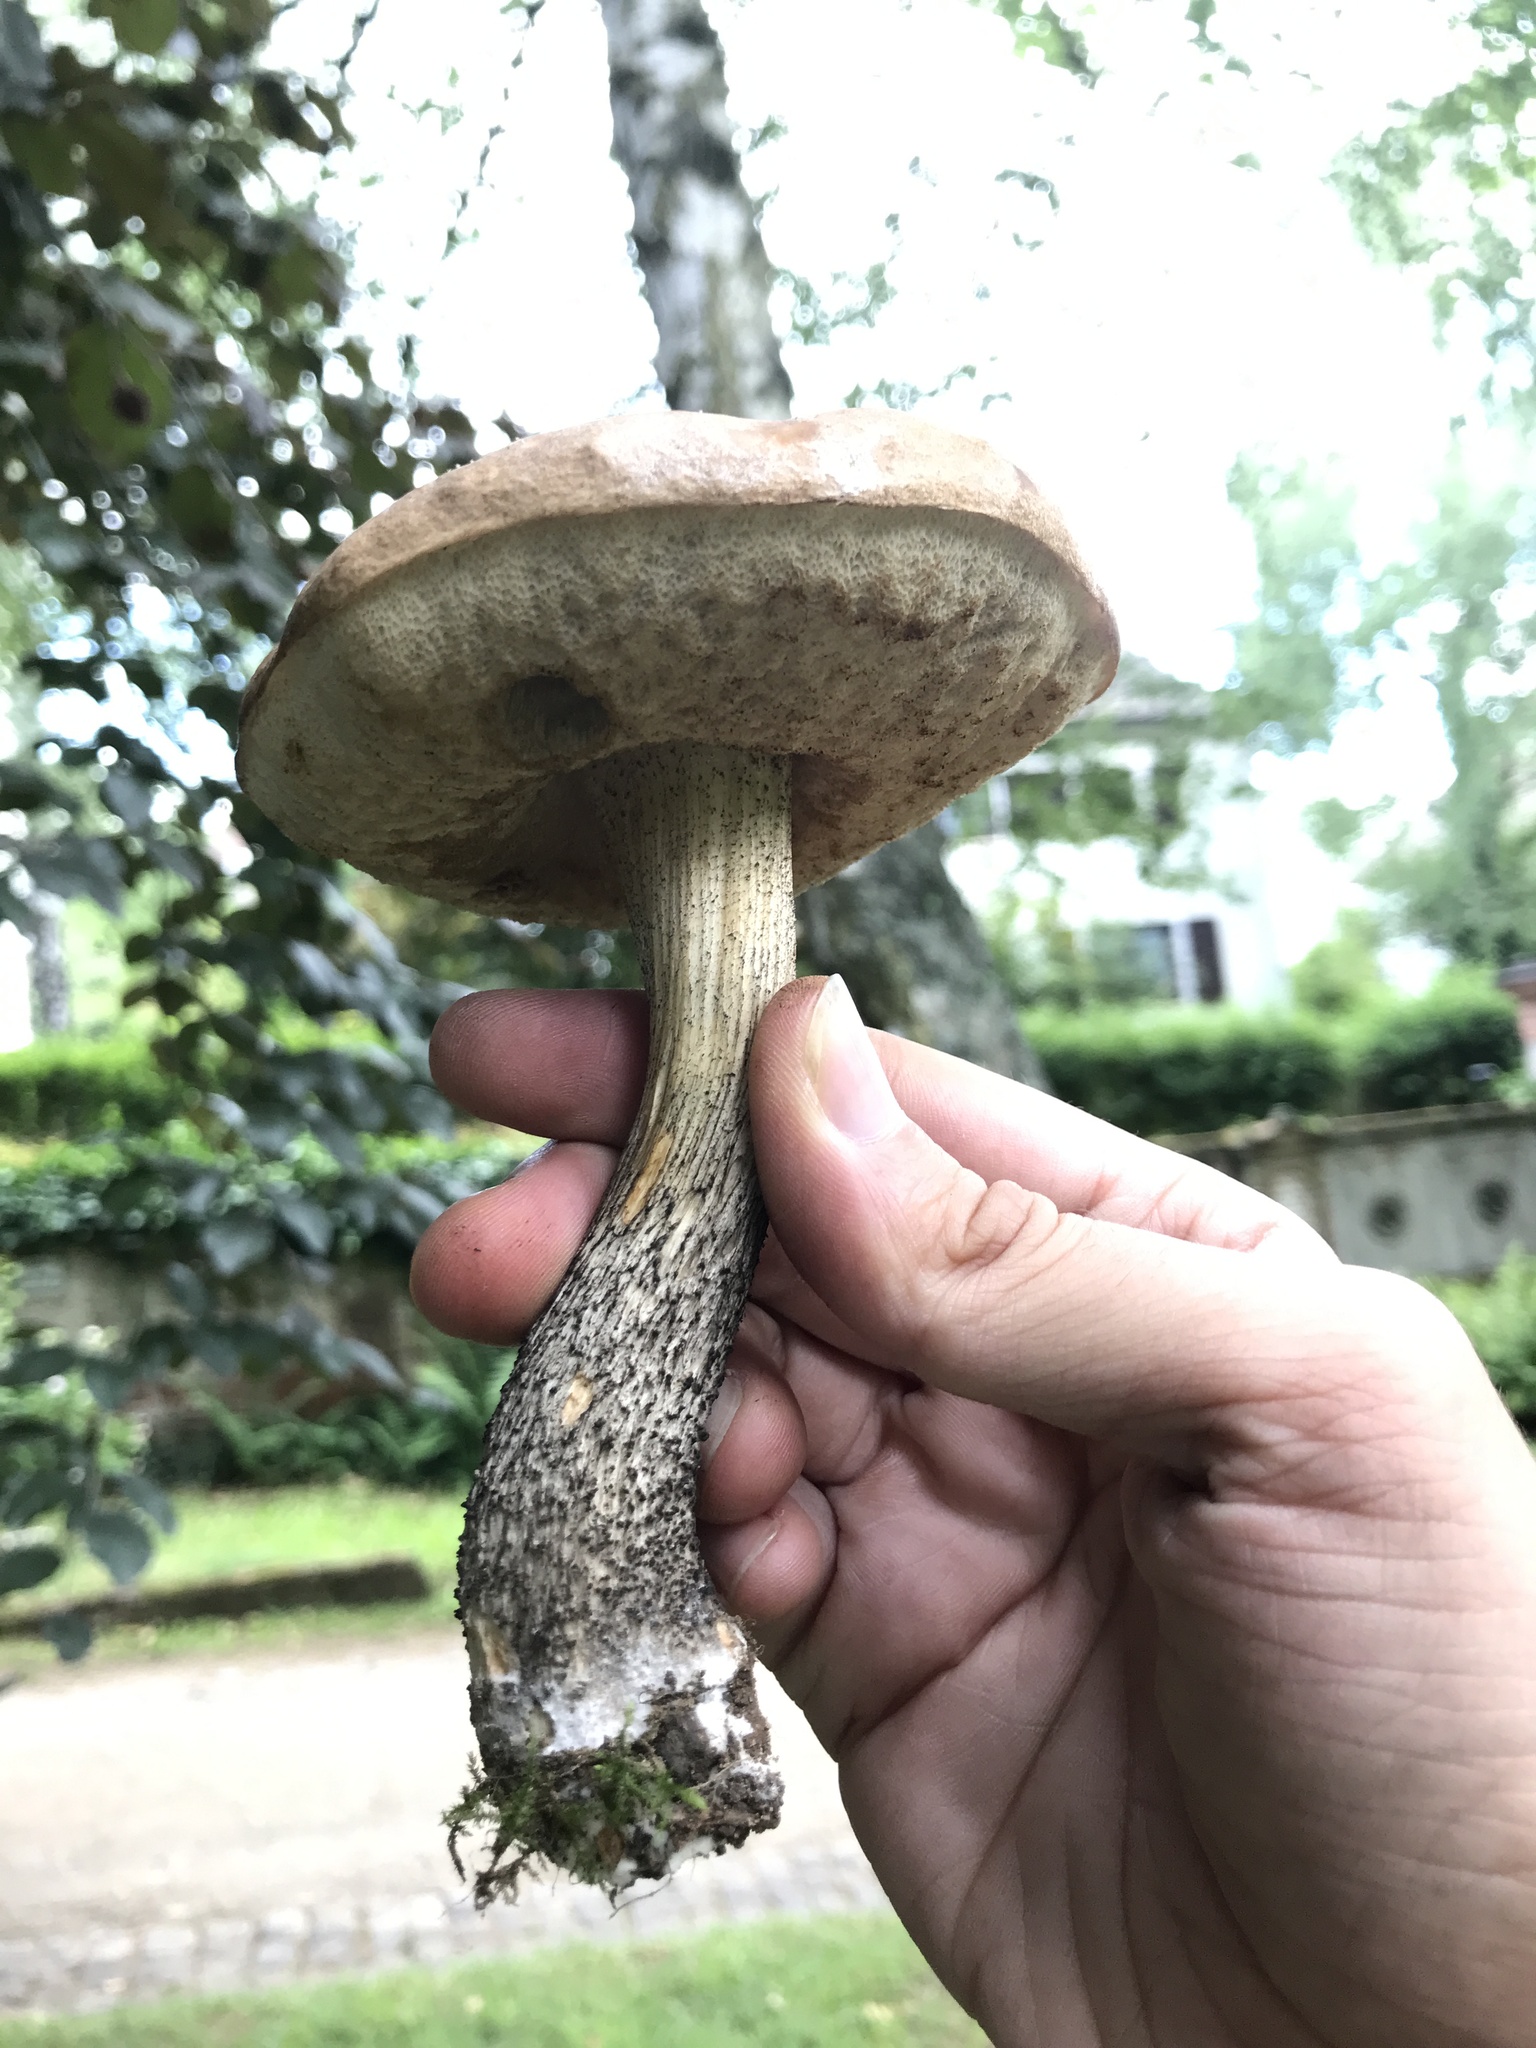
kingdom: Fungi
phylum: Basidiomycota
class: Agaricomycetes
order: Boletales
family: Boletaceae
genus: Leccinum
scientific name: Leccinum scabrum
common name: Blushing bolete
